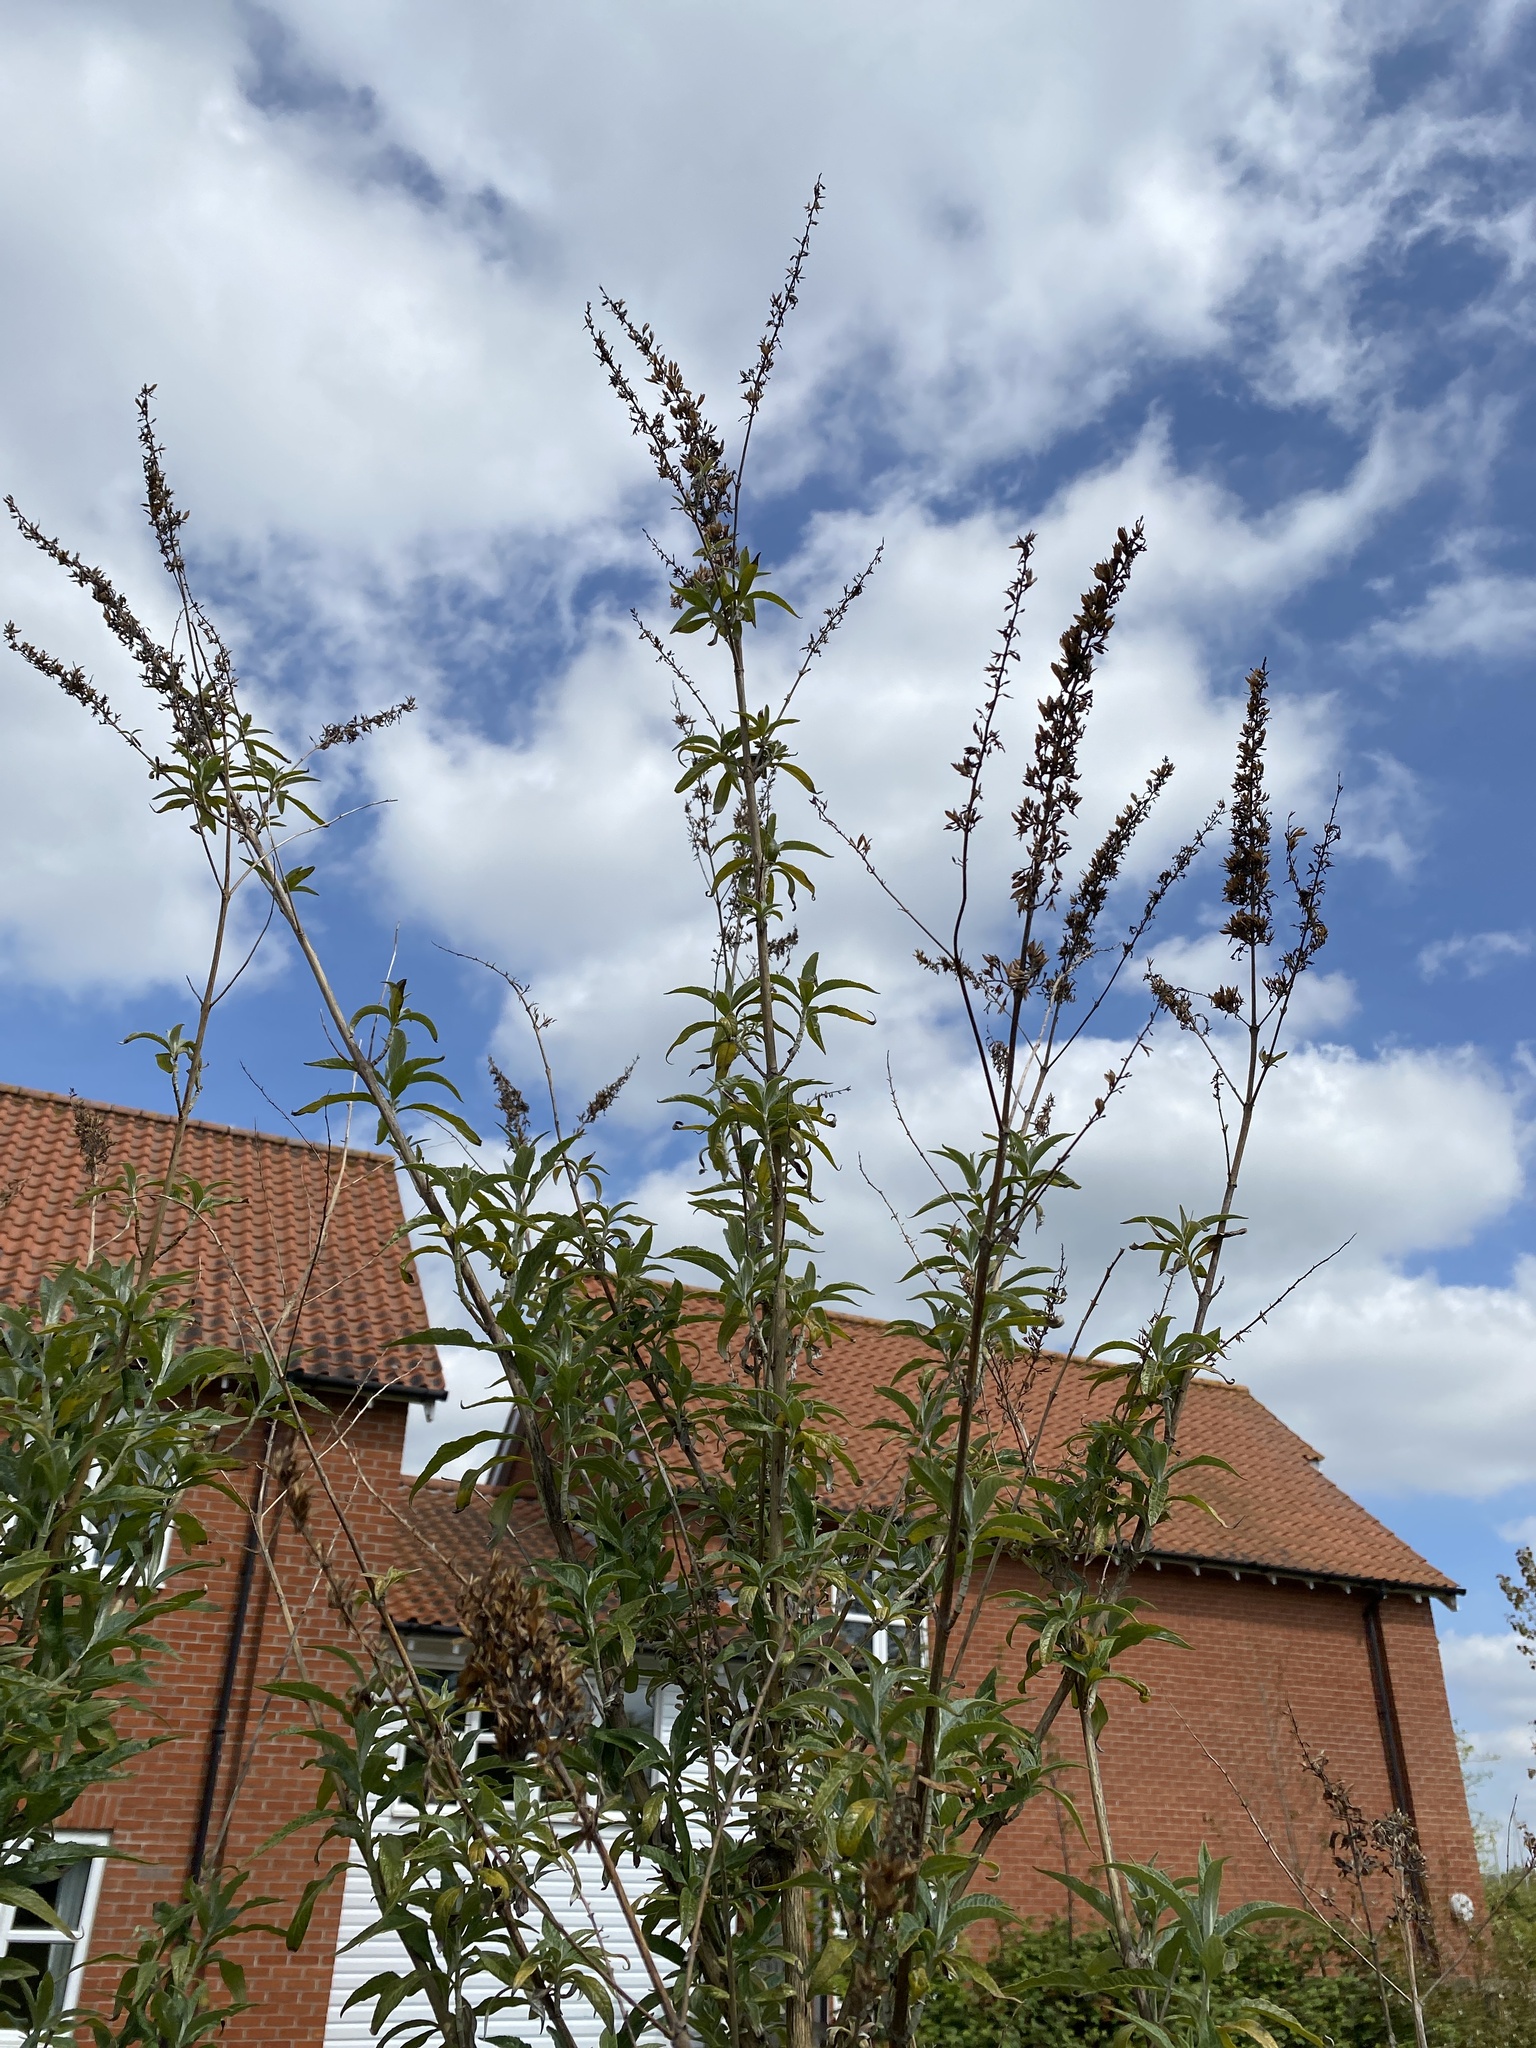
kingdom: Plantae
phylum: Tracheophyta
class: Magnoliopsida
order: Lamiales
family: Scrophulariaceae
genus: Buddleja
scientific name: Buddleja davidii
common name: Butterfly-bush
